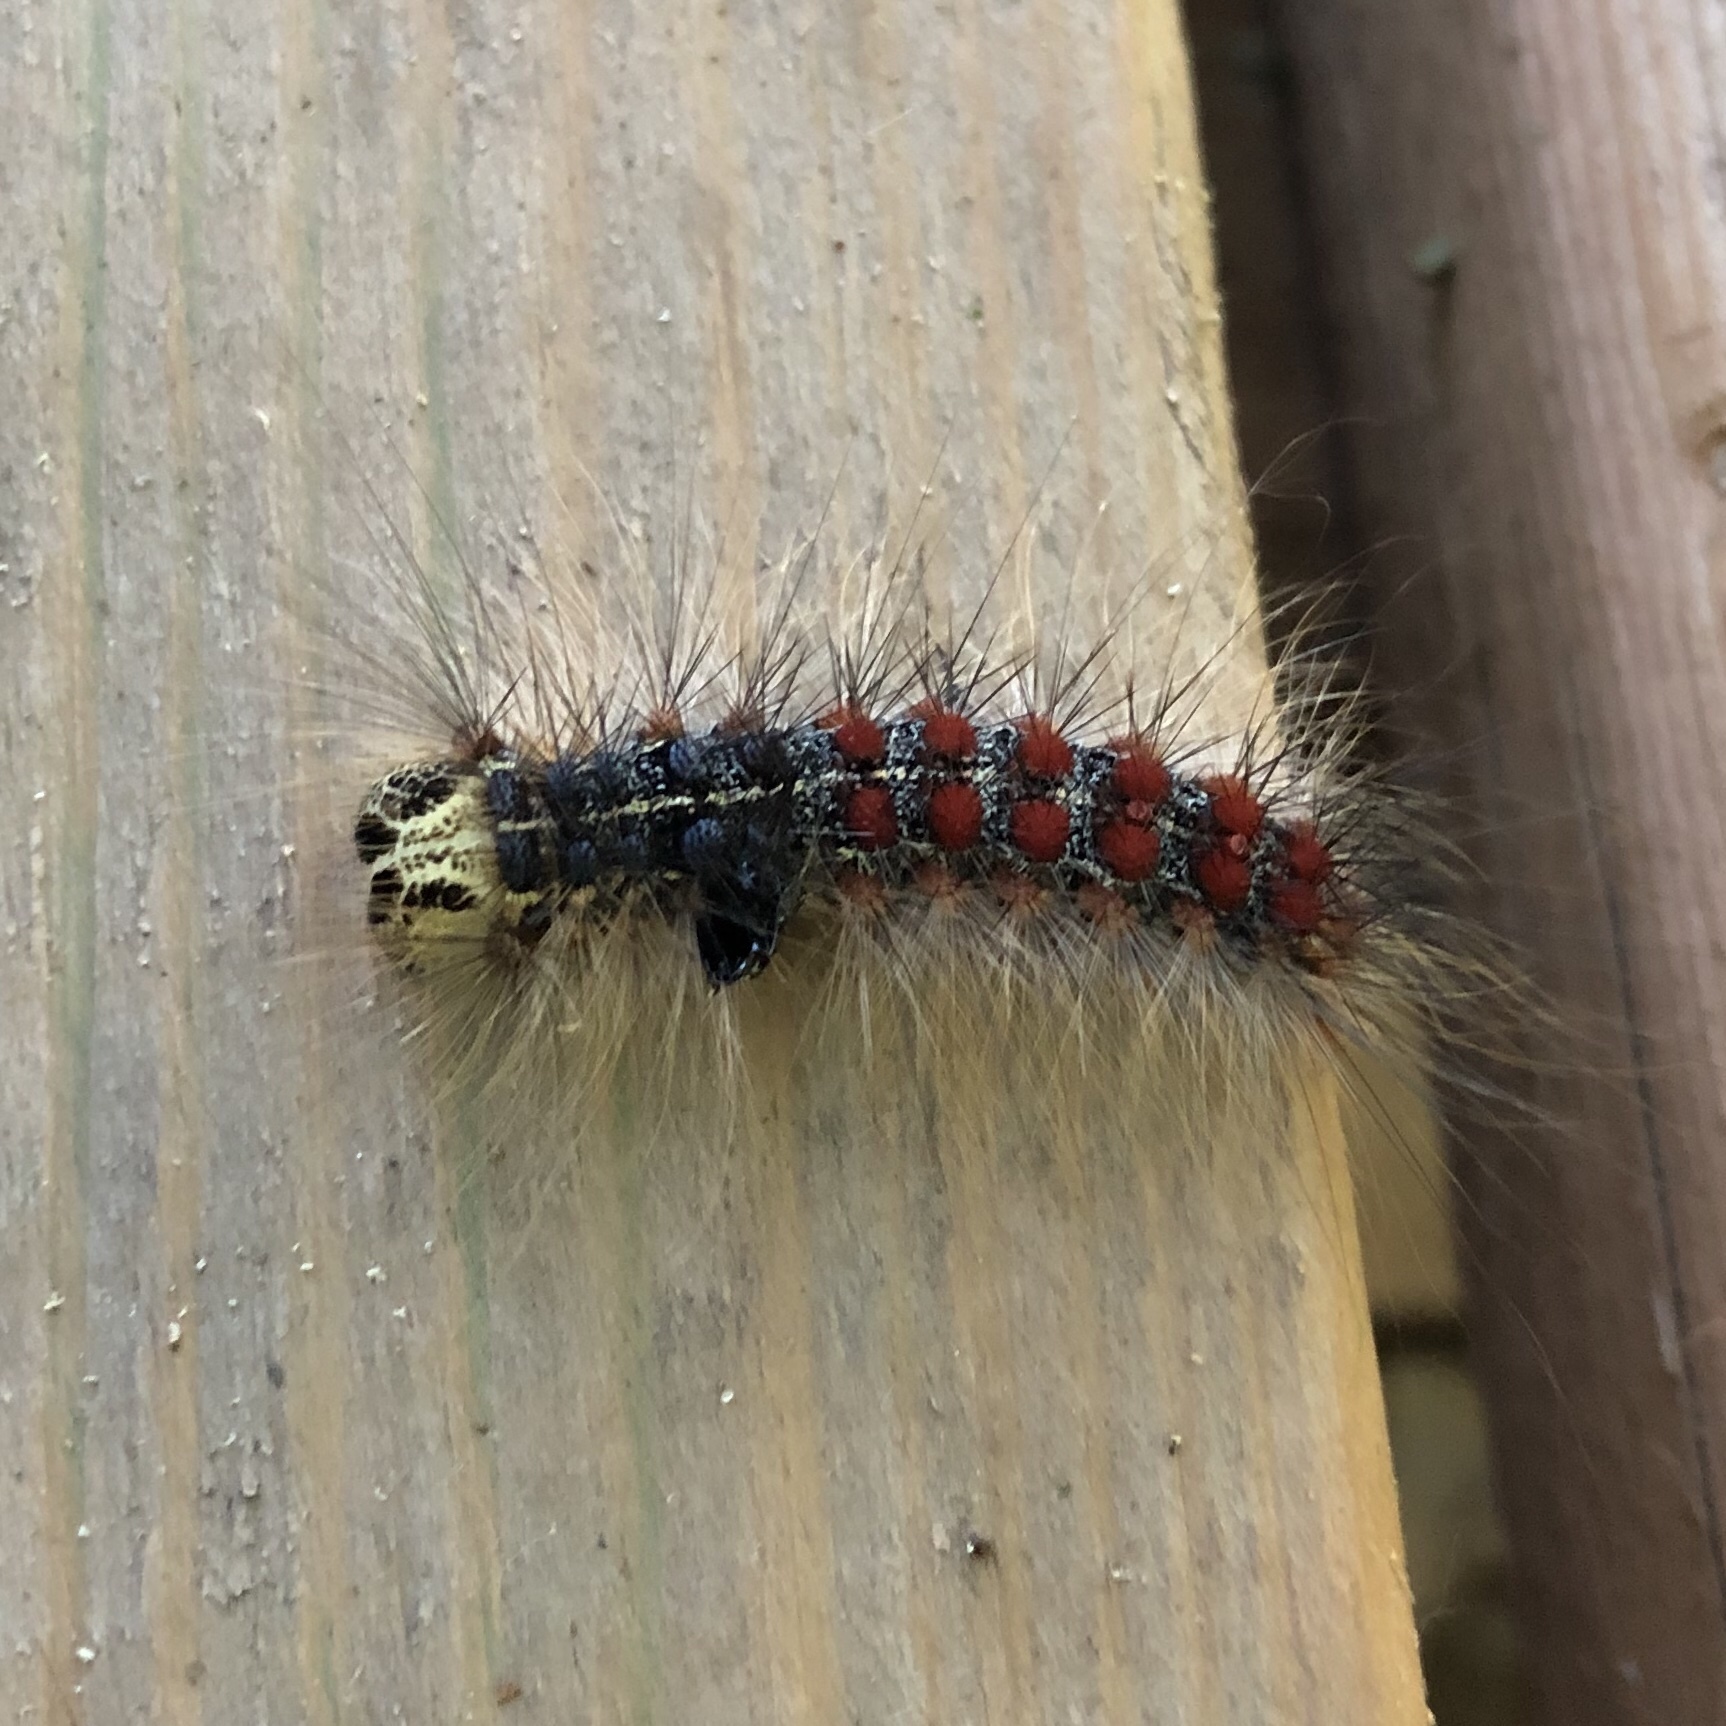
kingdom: Animalia
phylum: Arthropoda
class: Insecta
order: Lepidoptera
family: Erebidae
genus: Lymantria
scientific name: Lymantria dispar
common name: Gypsy moth
